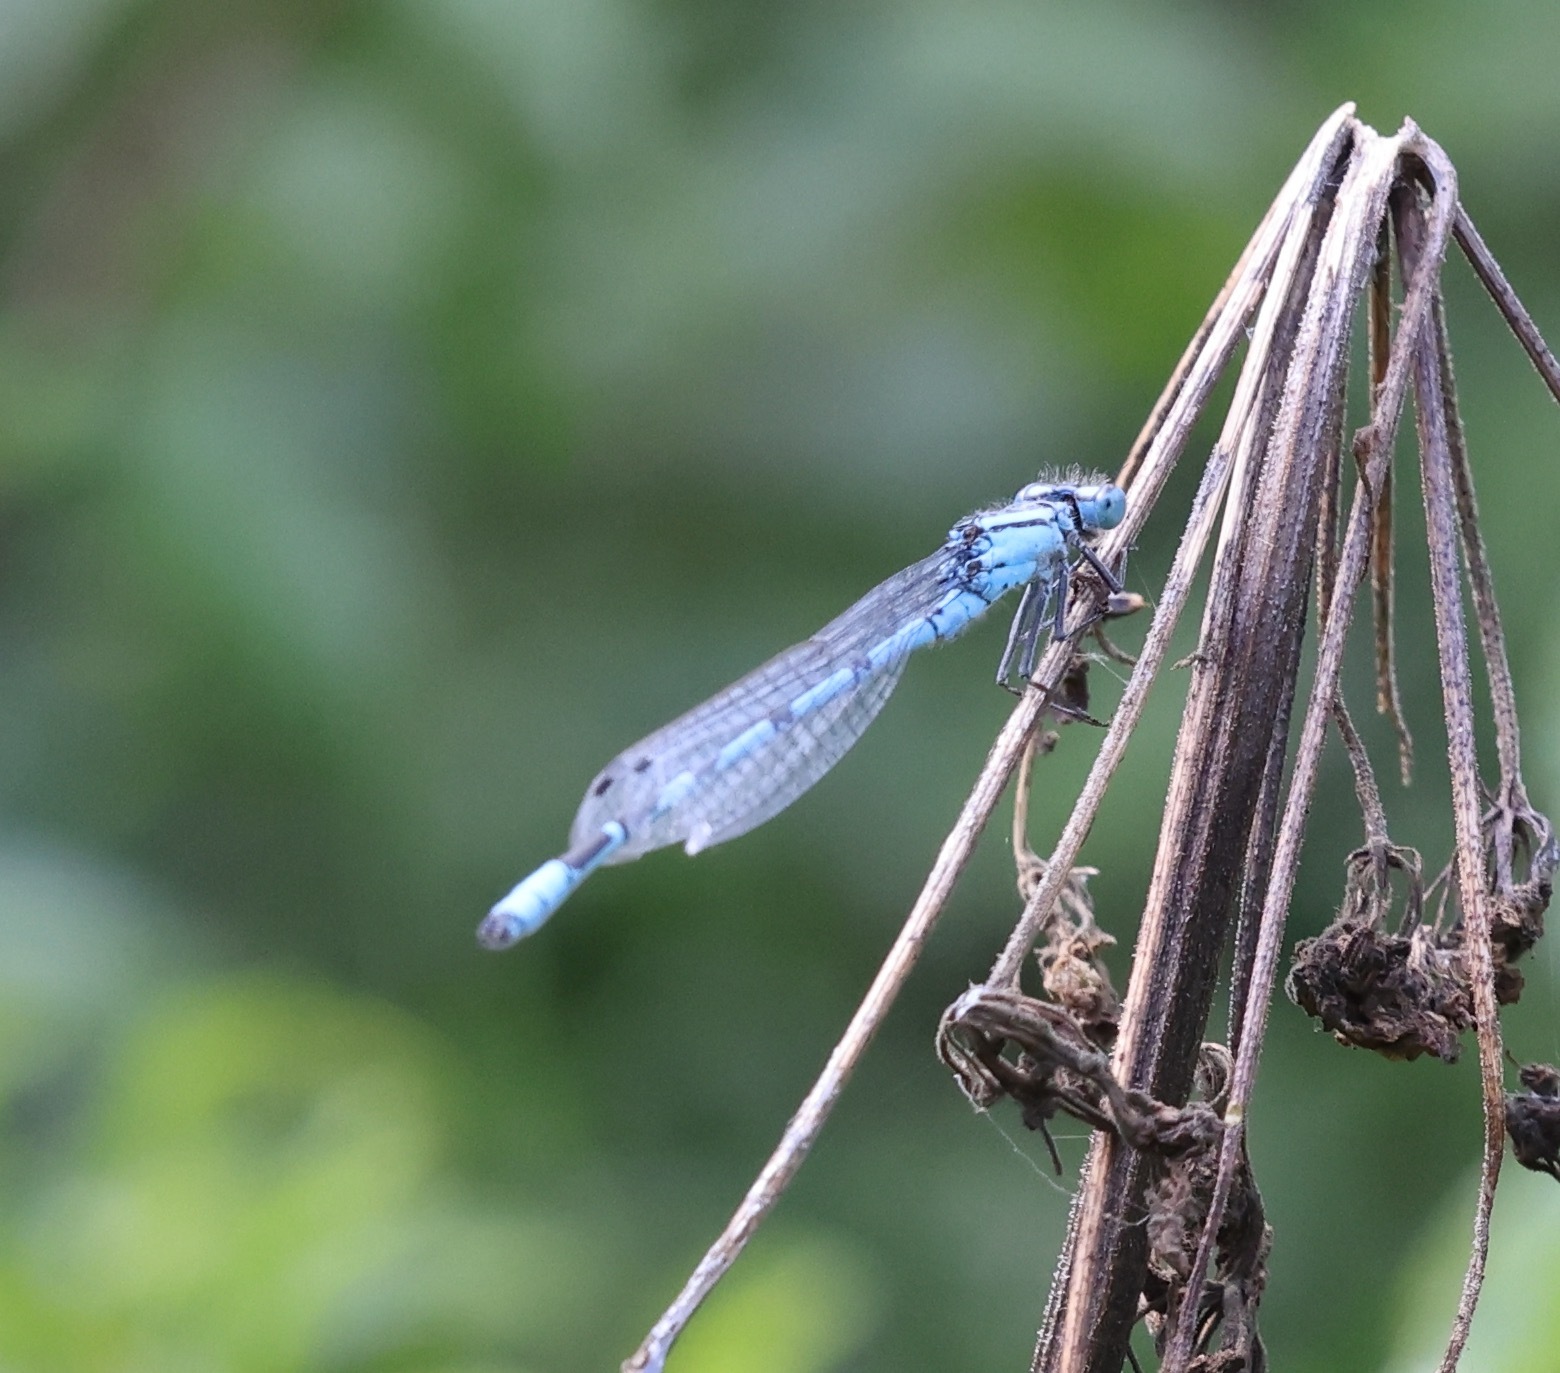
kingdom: Animalia
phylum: Arthropoda
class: Insecta
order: Odonata
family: Coenagrionidae
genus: Enallagma
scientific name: Enallagma cyathigerum
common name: Common blue damselfly
